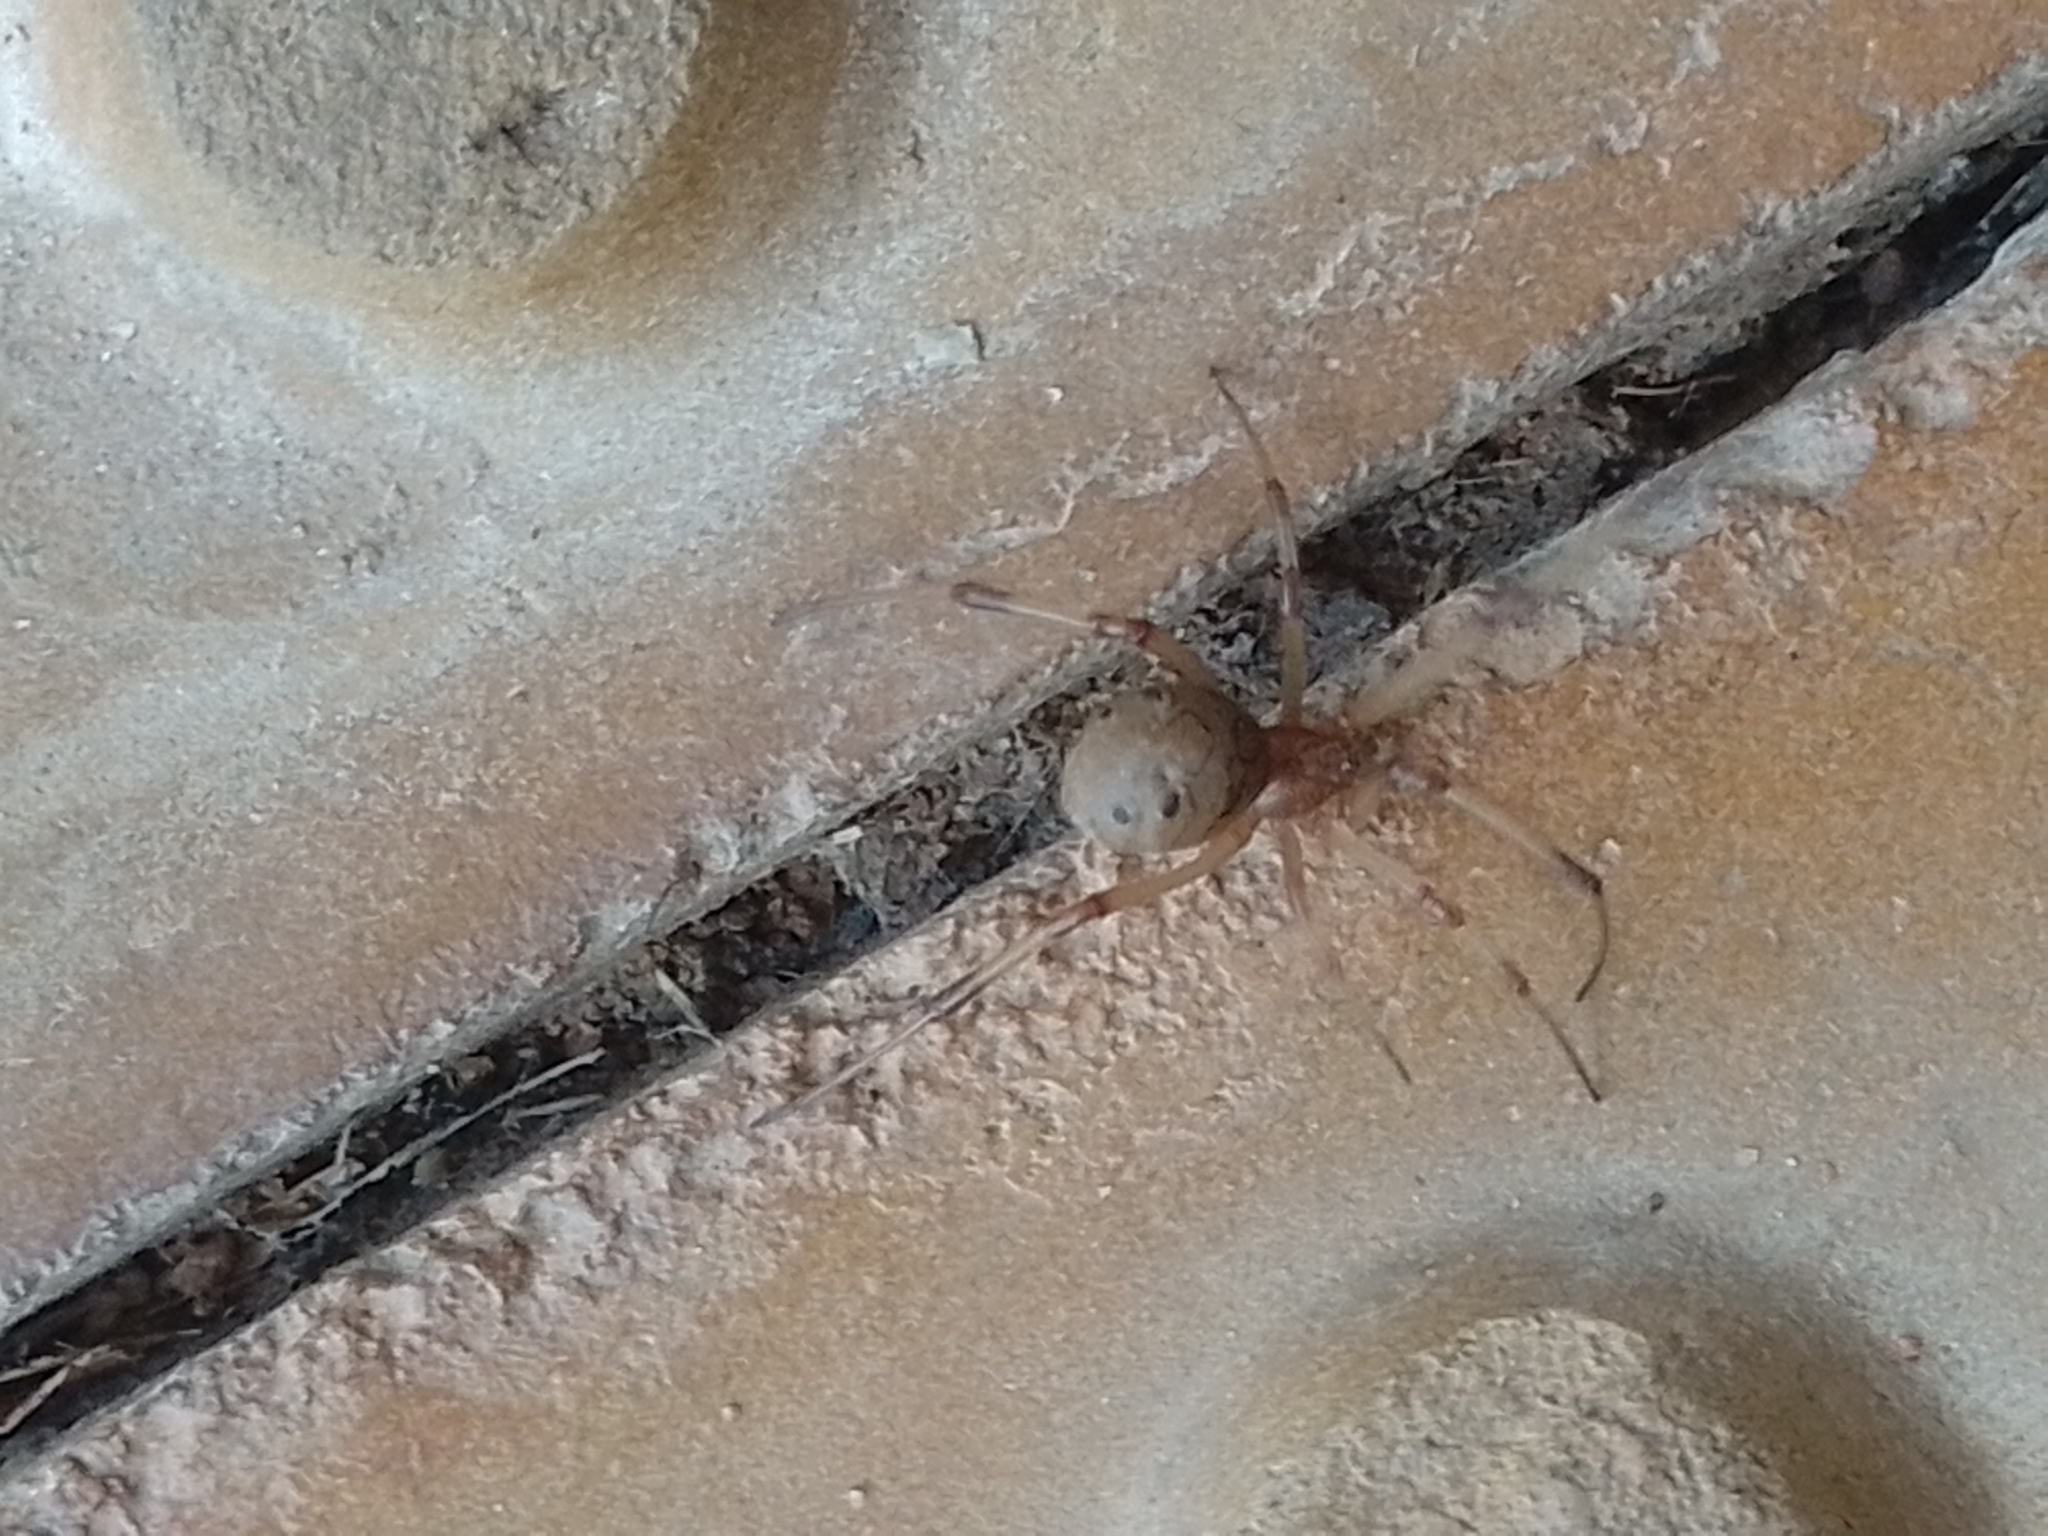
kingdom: Animalia
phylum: Arthropoda
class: Arachnida
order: Araneae
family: Theridiidae
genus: Latrodectus
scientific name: Latrodectus geometricus
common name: Brown widow spider
